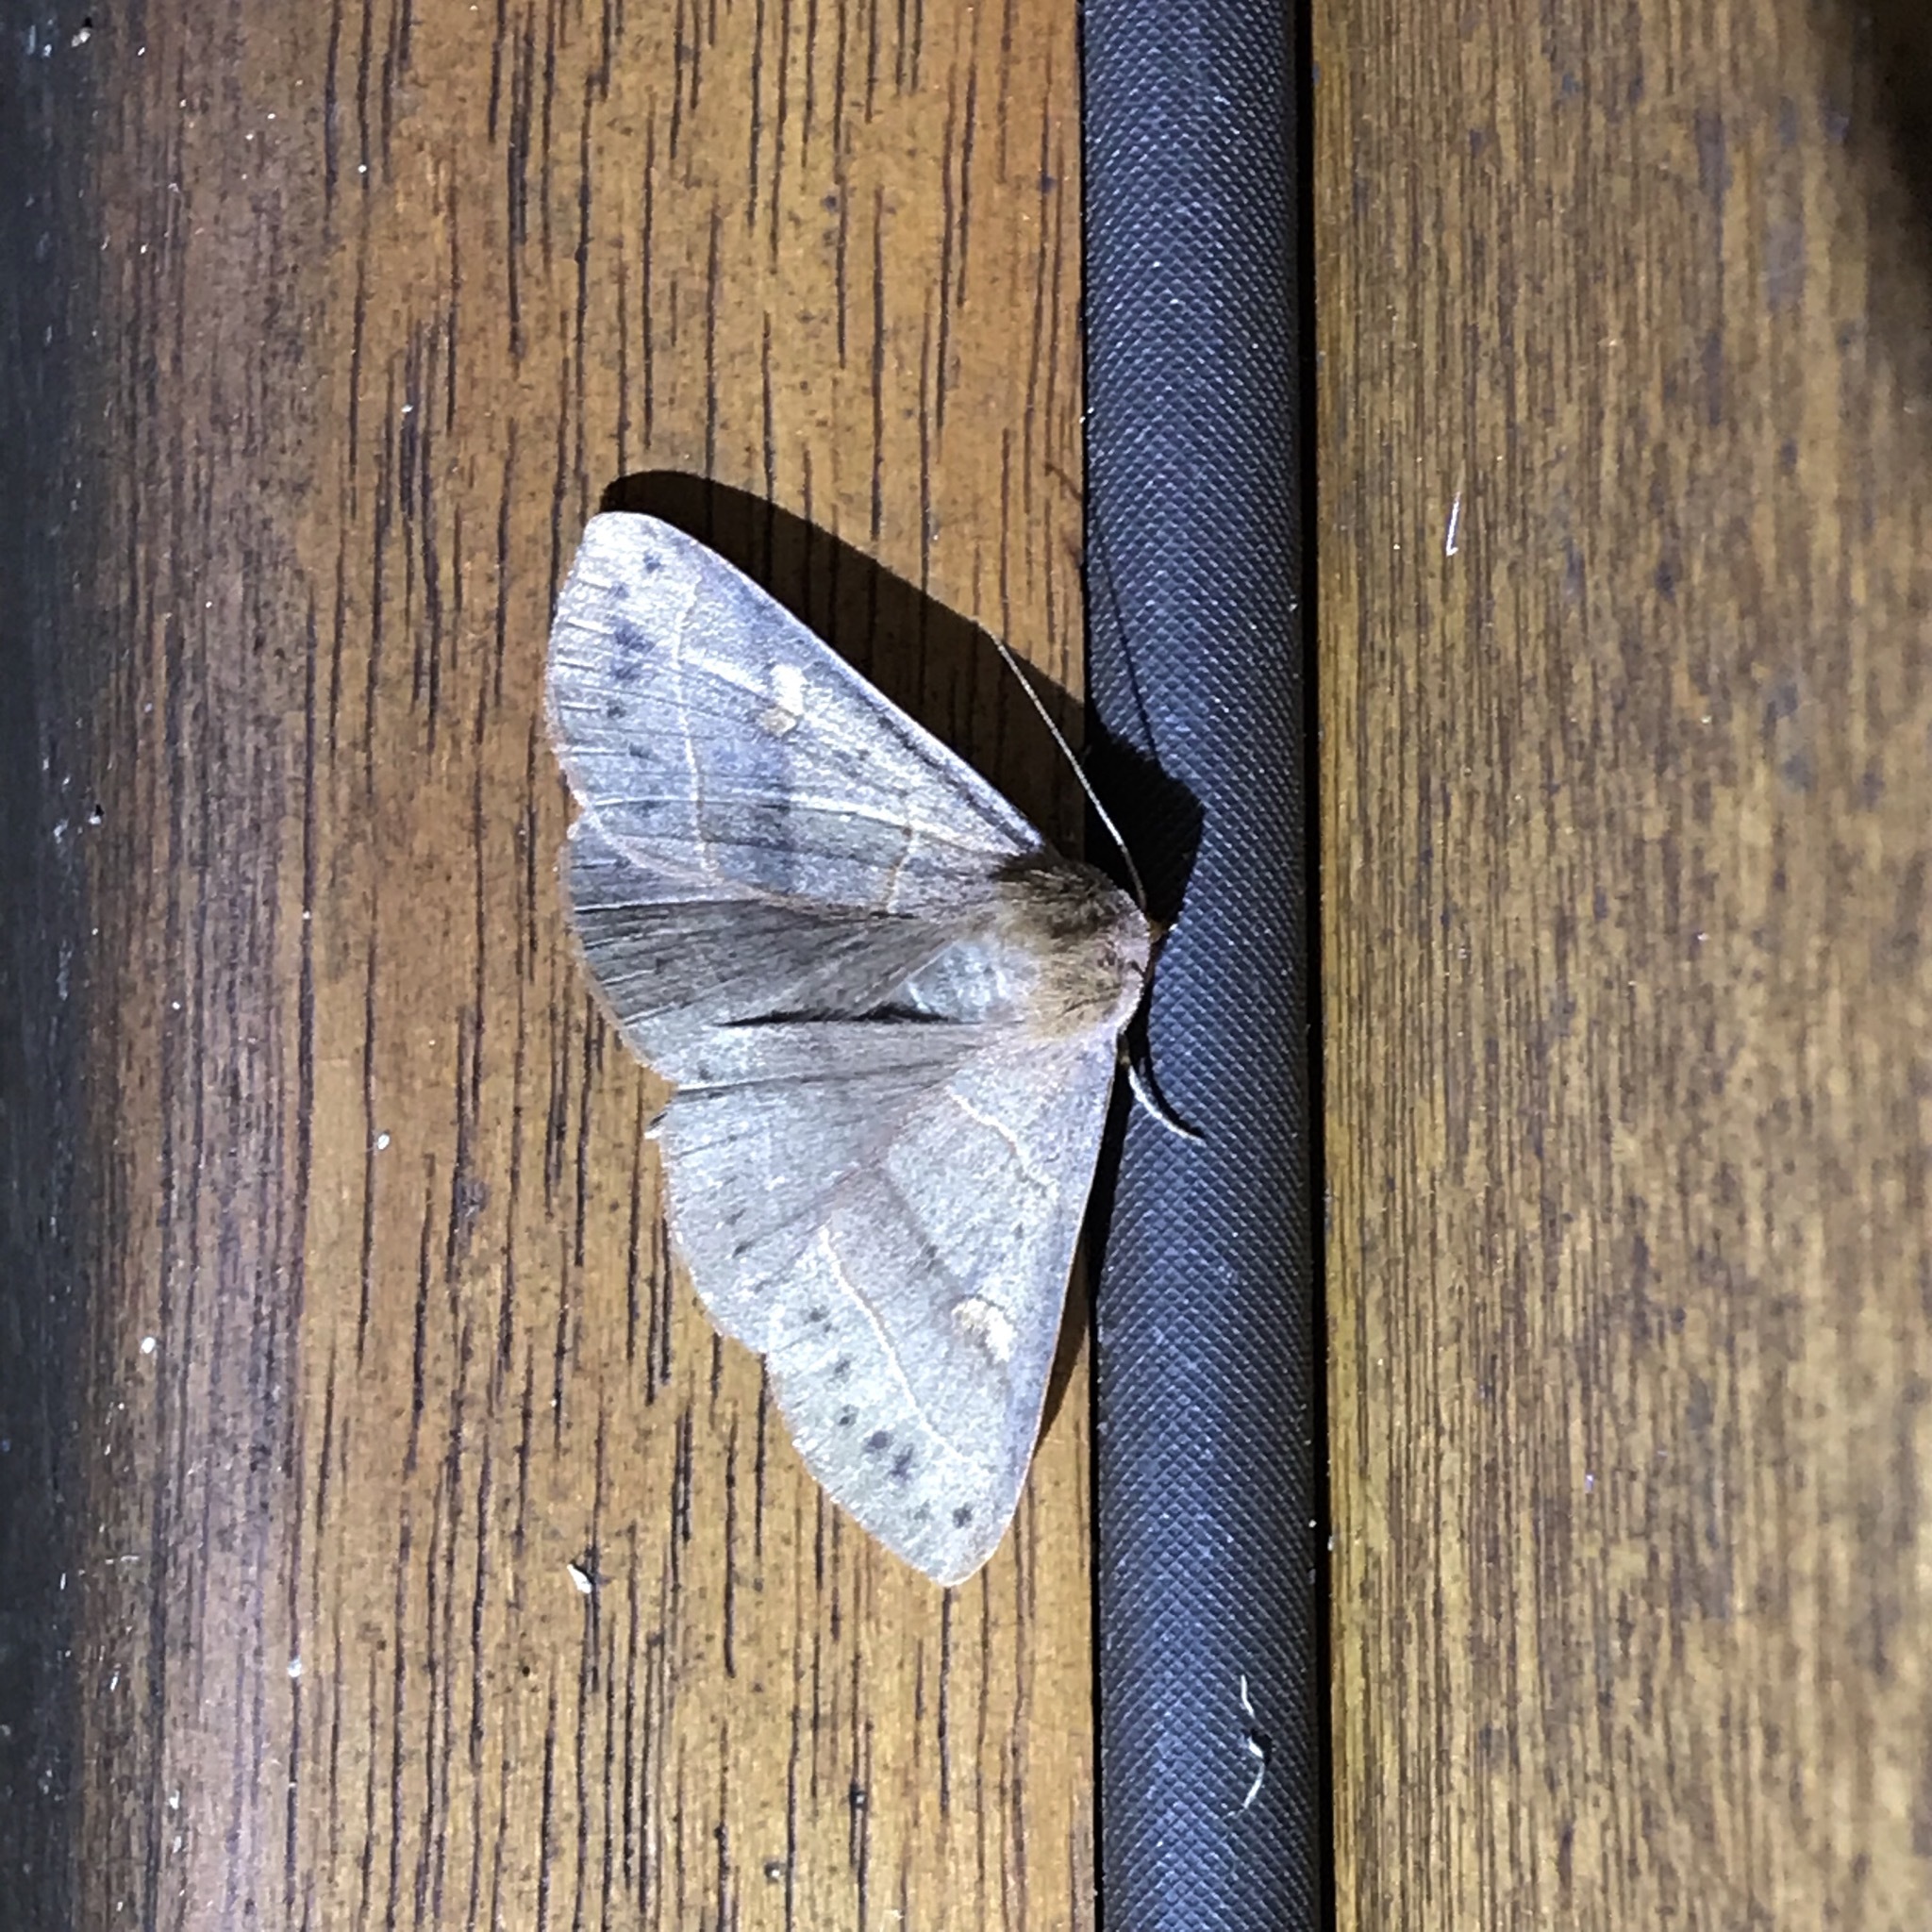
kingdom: Animalia
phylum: Arthropoda
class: Insecta
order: Lepidoptera
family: Erebidae
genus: Panopoda
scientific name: Panopoda rufimargo
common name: Red-lined panopoda moth
